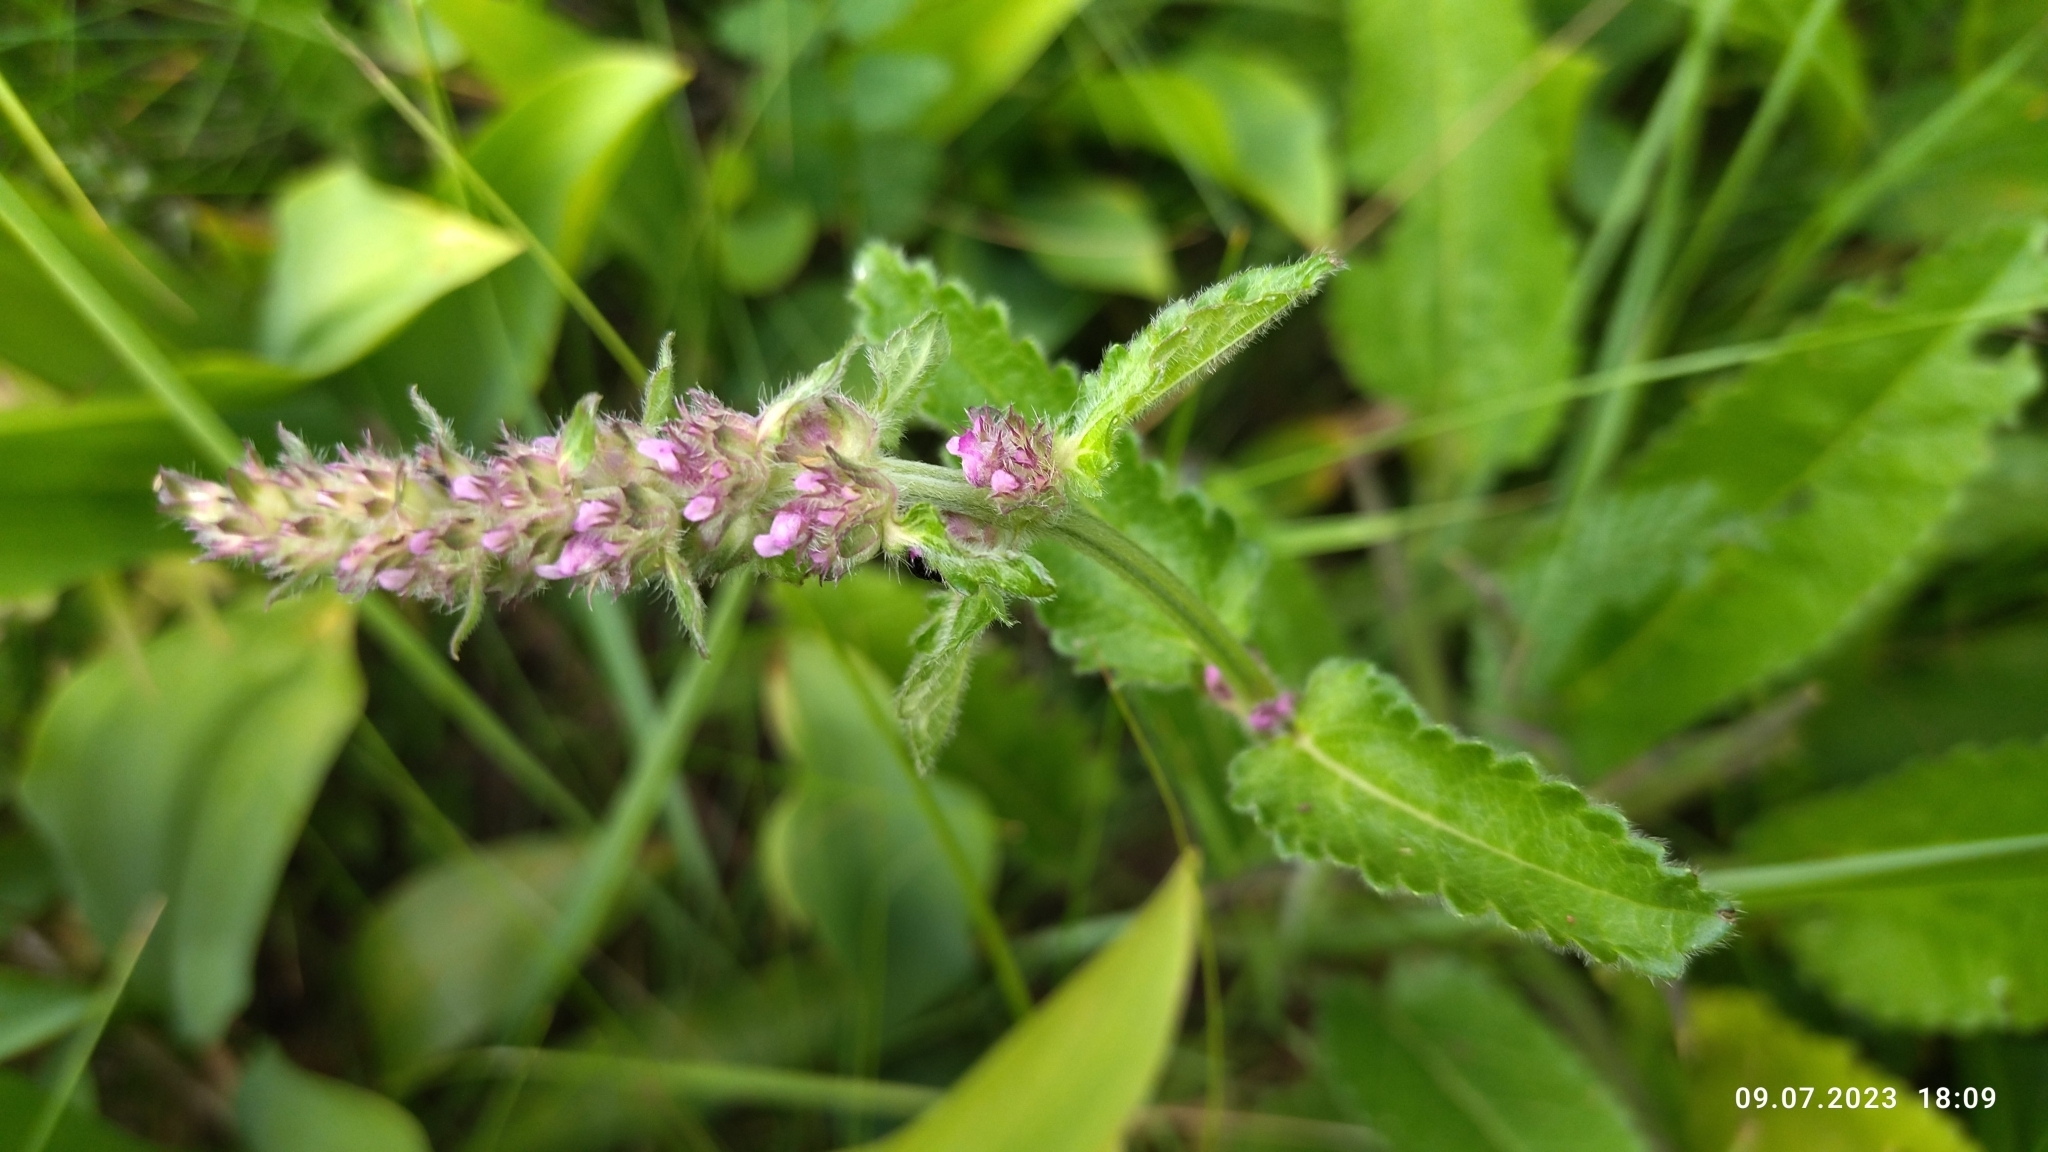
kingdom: Plantae
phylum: Tracheophyta
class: Magnoliopsida
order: Lamiales
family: Lamiaceae
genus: Betonica
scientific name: Betonica officinalis
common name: Bishop's-wort
